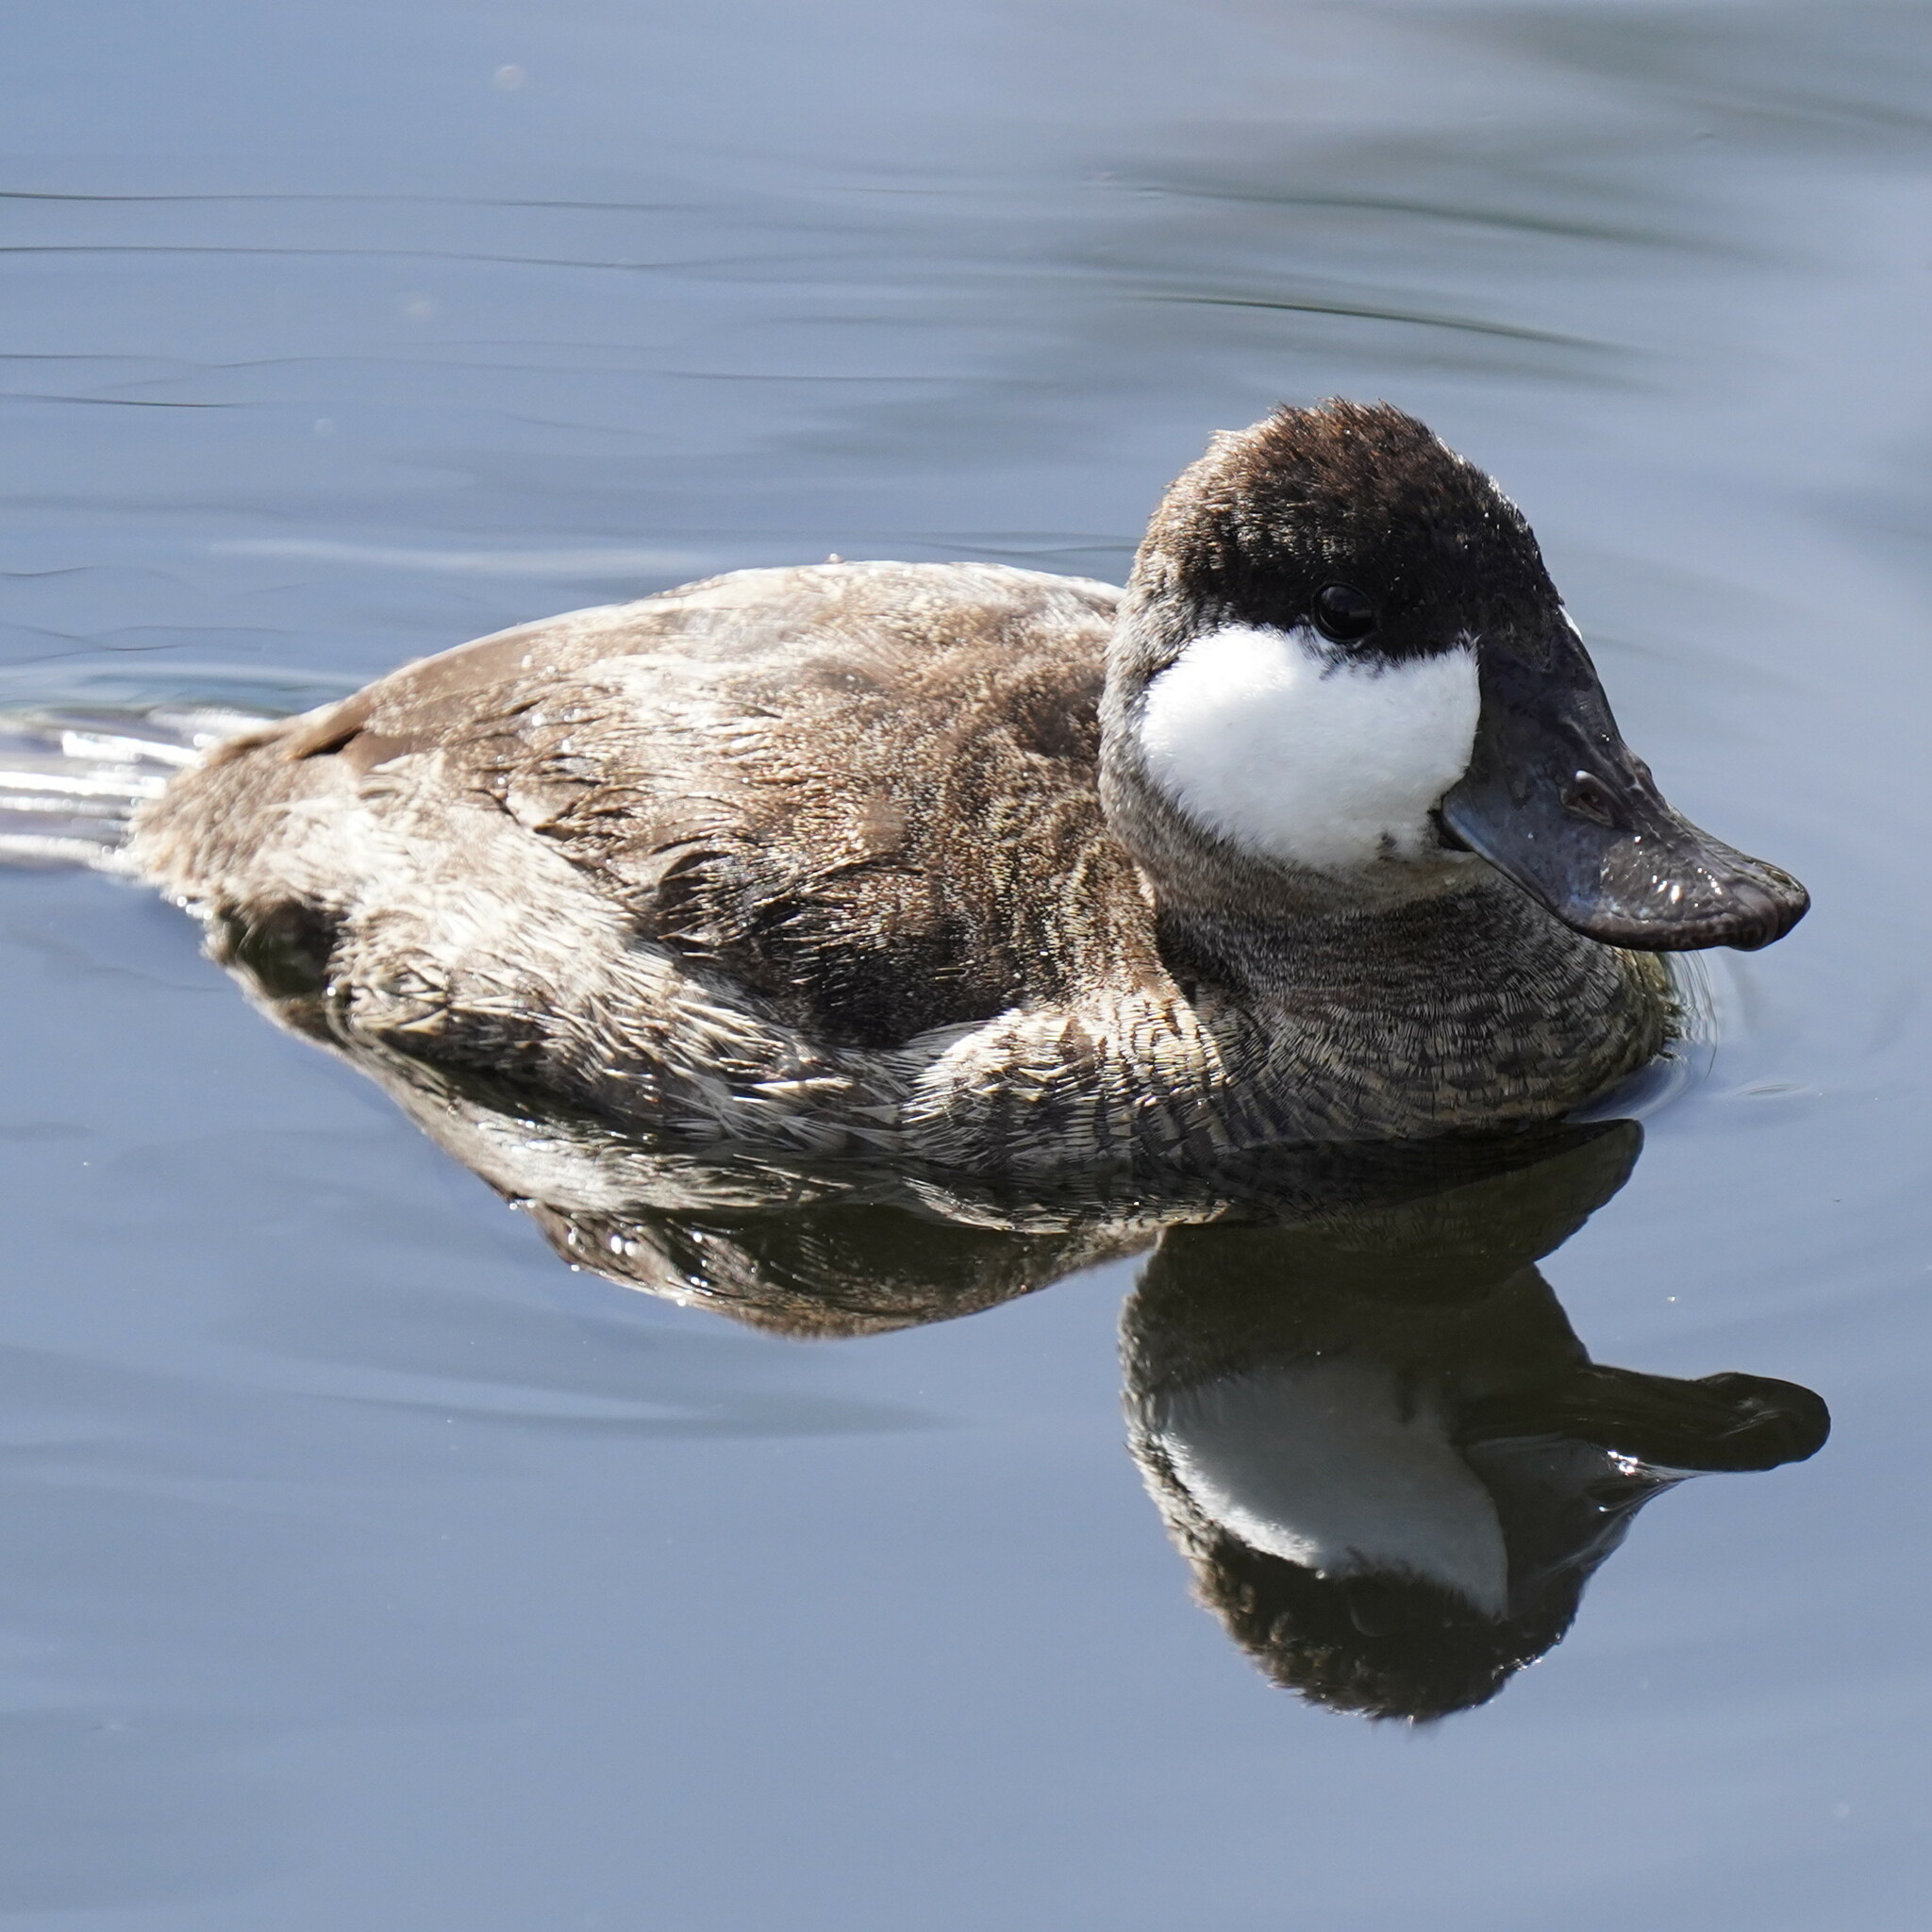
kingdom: Animalia
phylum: Chordata
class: Aves
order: Anseriformes
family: Anatidae
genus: Oxyura
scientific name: Oxyura jamaicensis
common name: Ruddy duck
